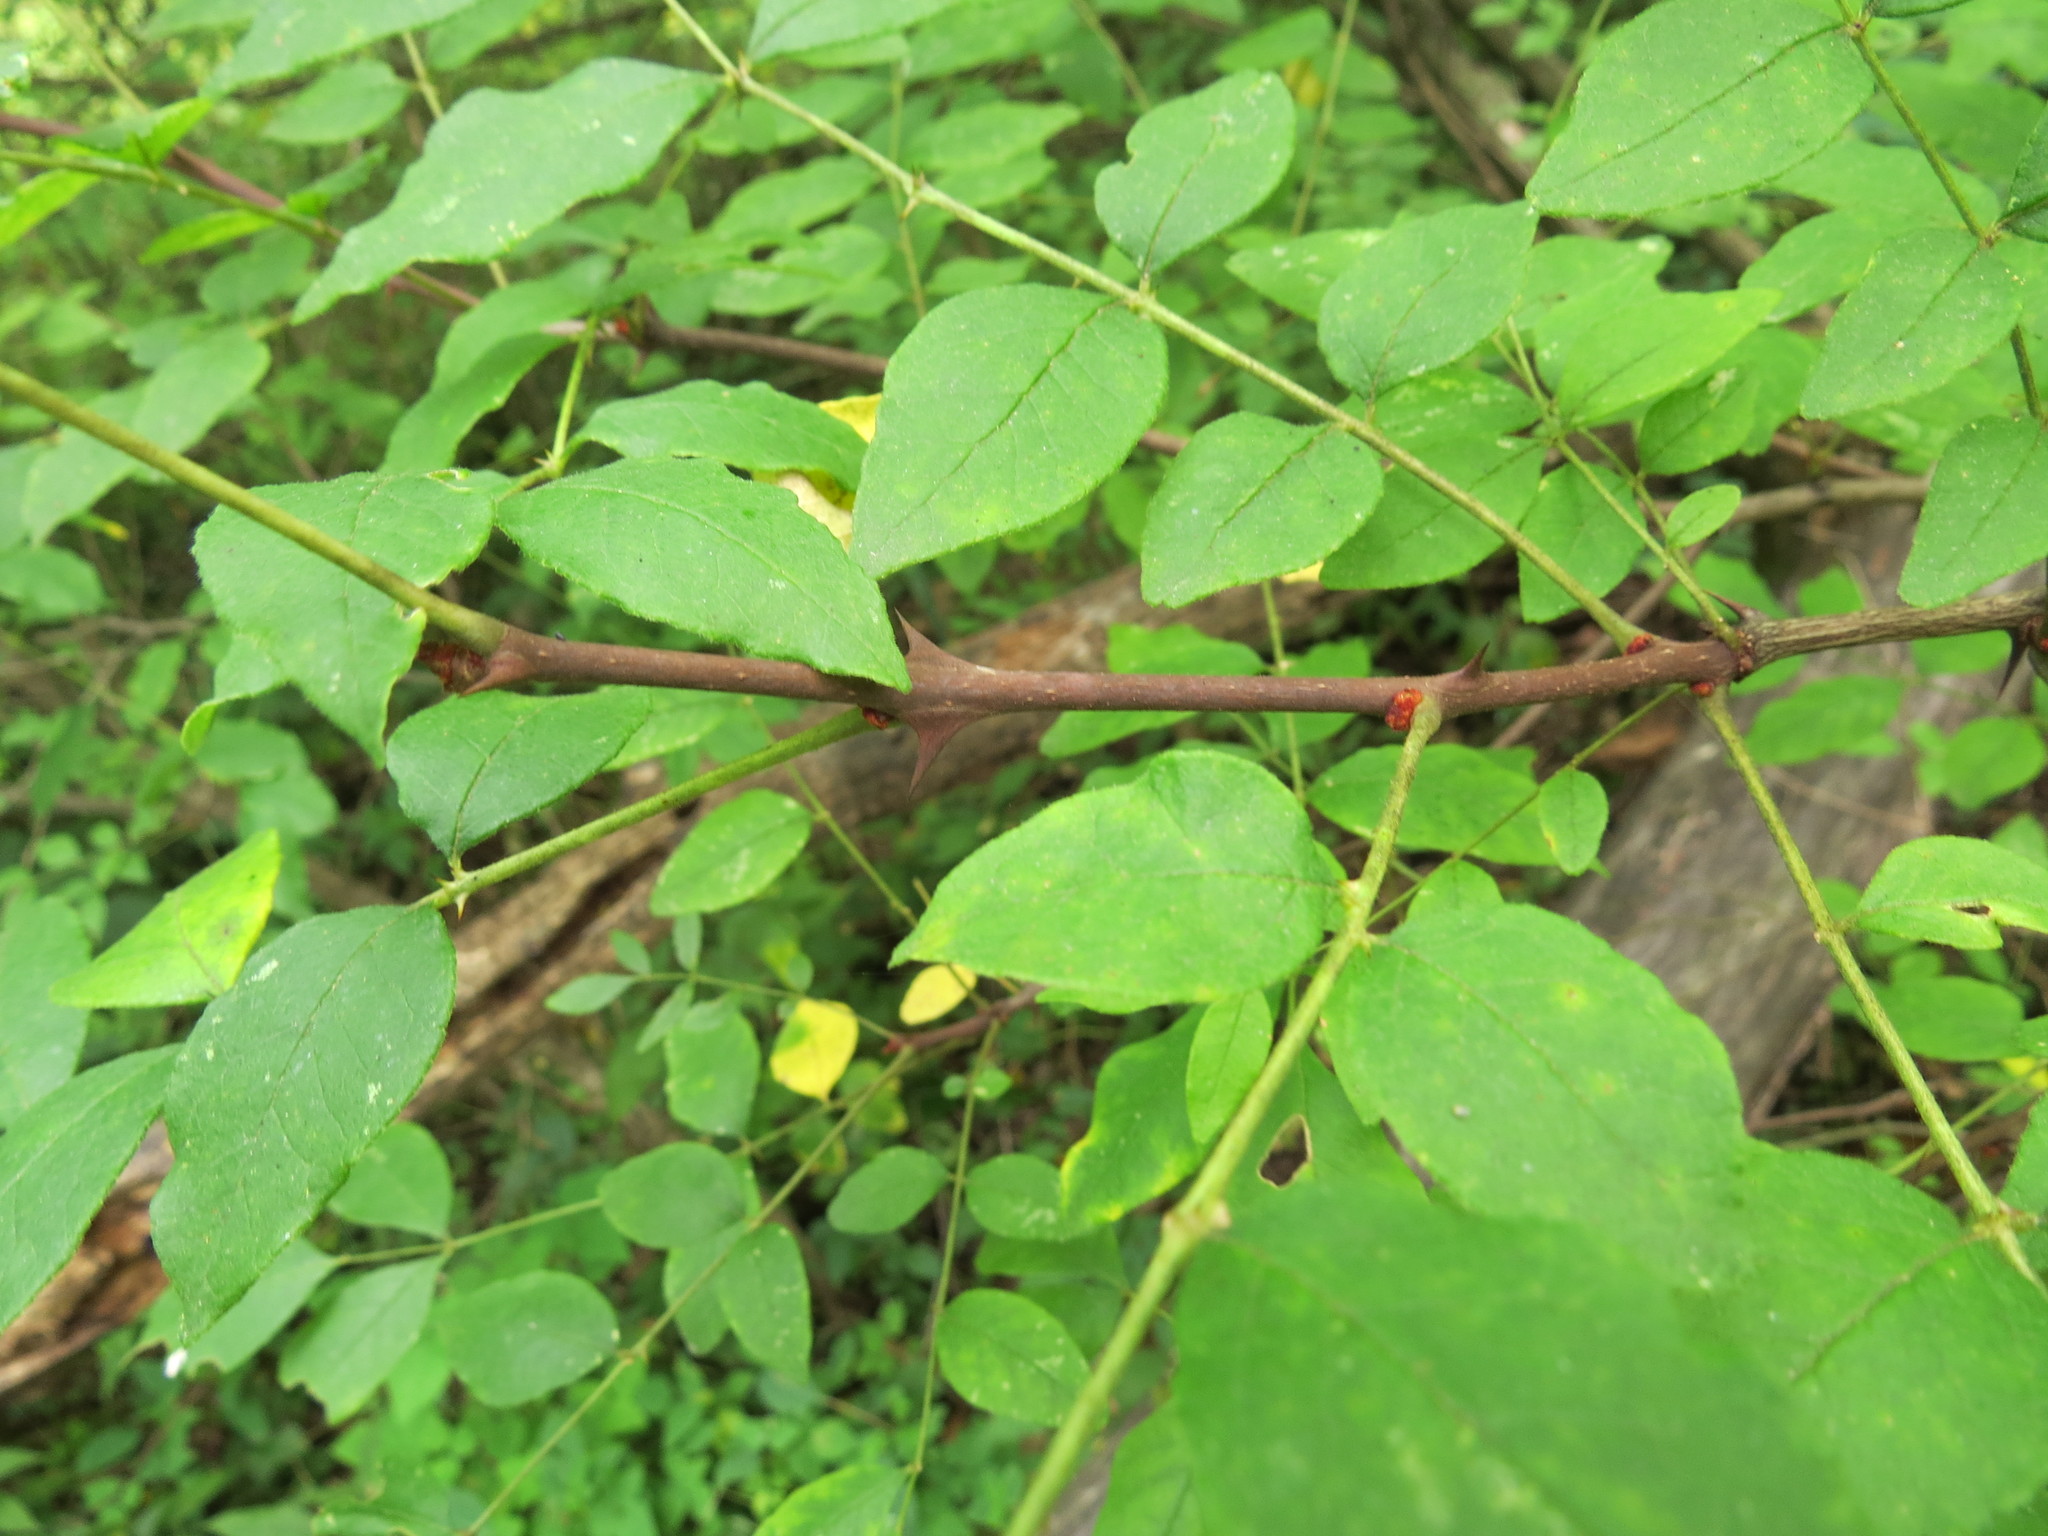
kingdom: Plantae
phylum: Tracheophyta
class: Magnoliopsida
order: Sapindales
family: Rutaceae
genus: Zanthoxylum
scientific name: Zanthoxylum americanum
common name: Northern prickly-ash
